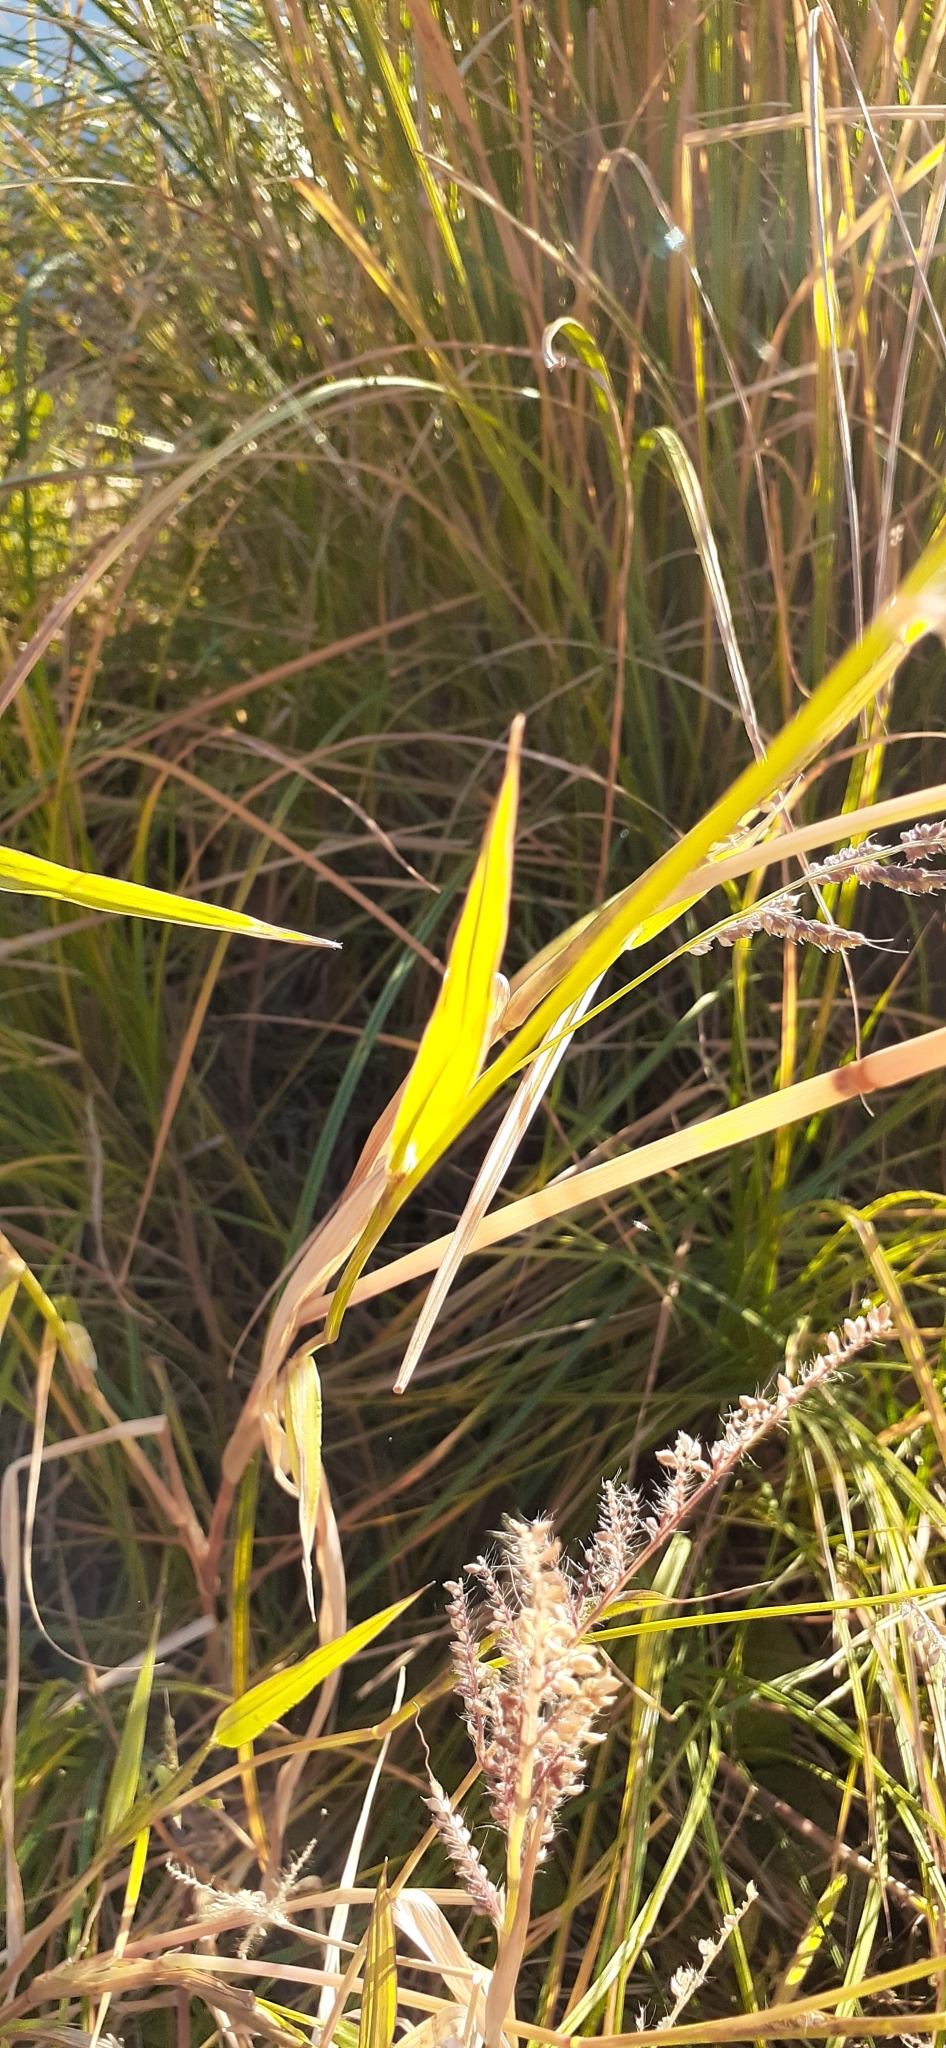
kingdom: Plantae
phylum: Tracheophyta
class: Liliopsida
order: Poales
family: Poaceae
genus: Echinochloa
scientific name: Echinochloa crus-galli
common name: Cockspur
